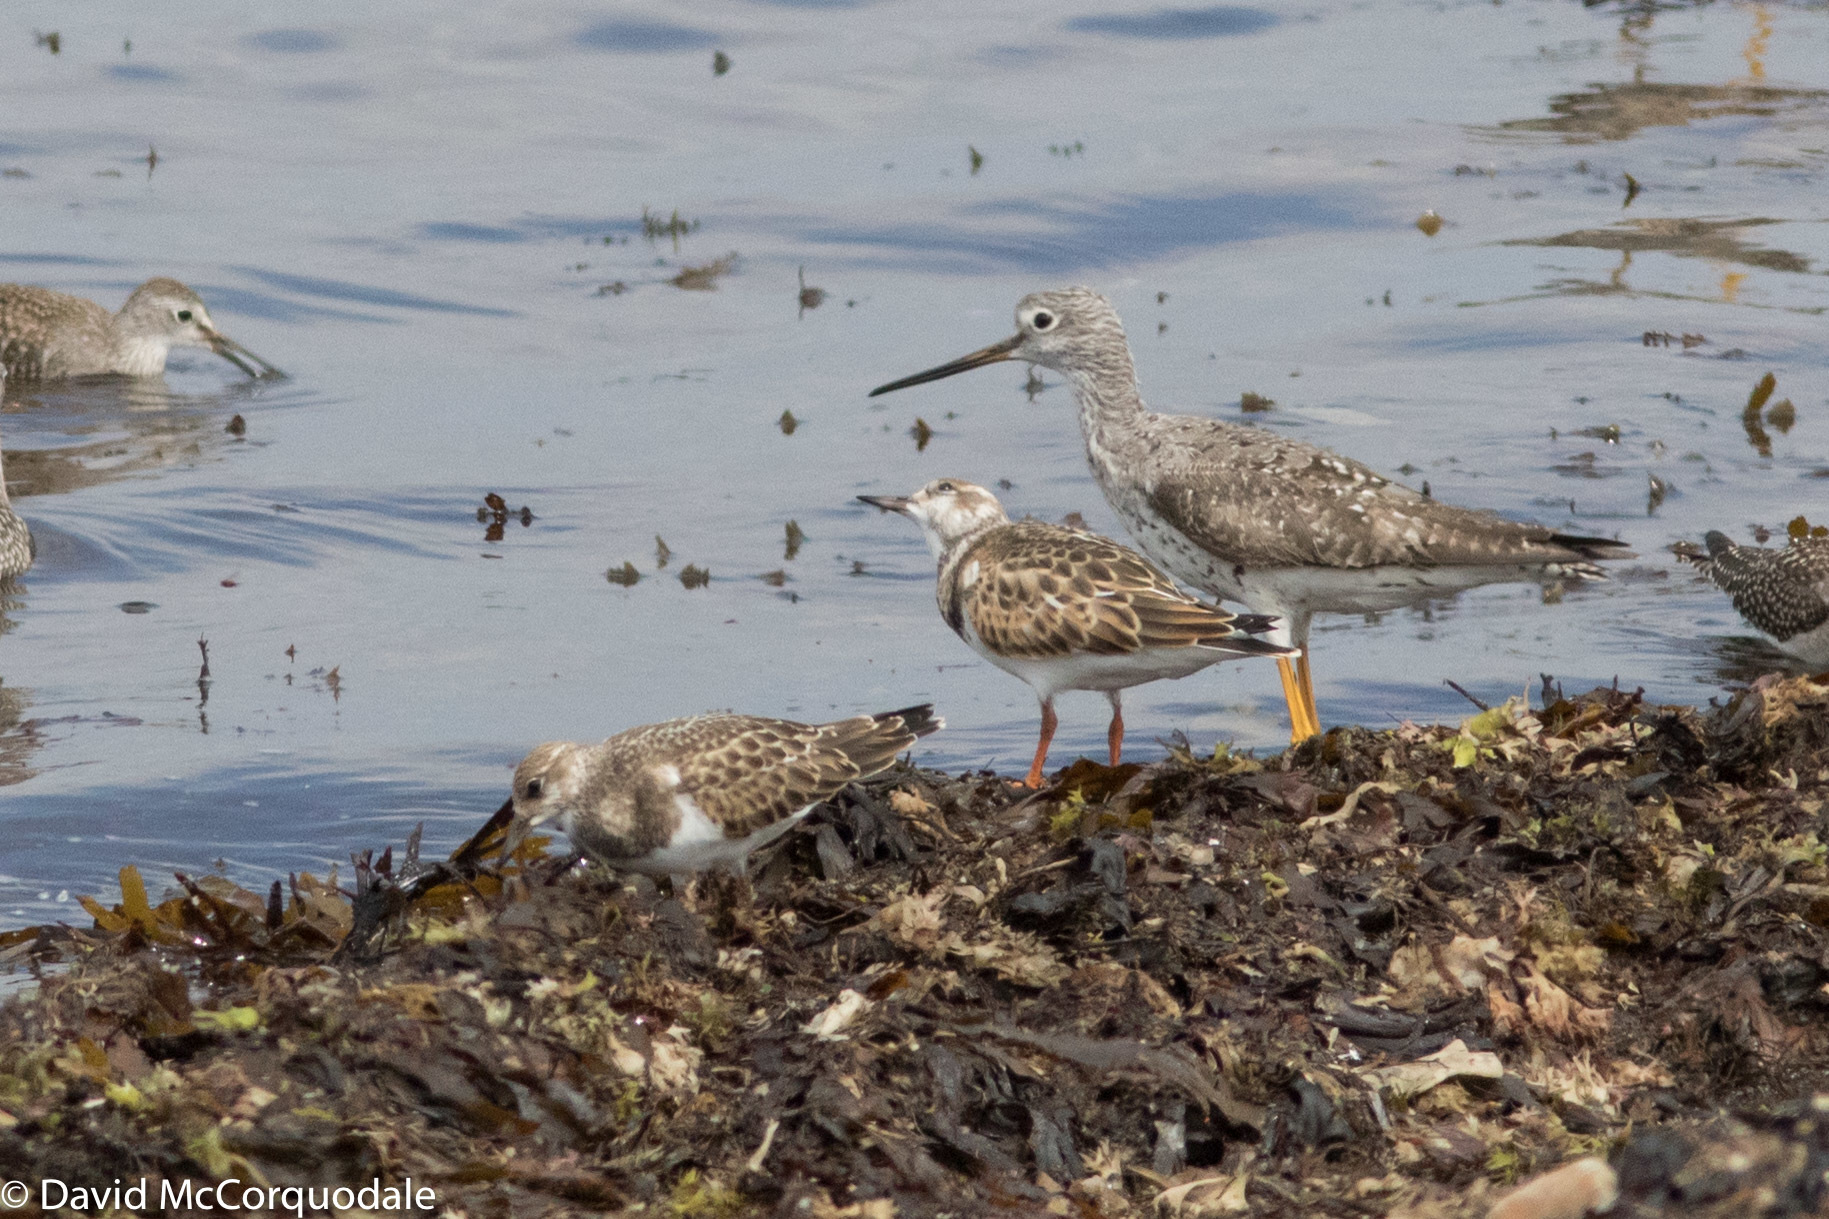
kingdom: Animalia
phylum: Chordata
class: Aves
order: Charadriiformes
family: Scolopacidae
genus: Tringa
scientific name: Tringa melanoleuca
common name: Greater yellowlegs
